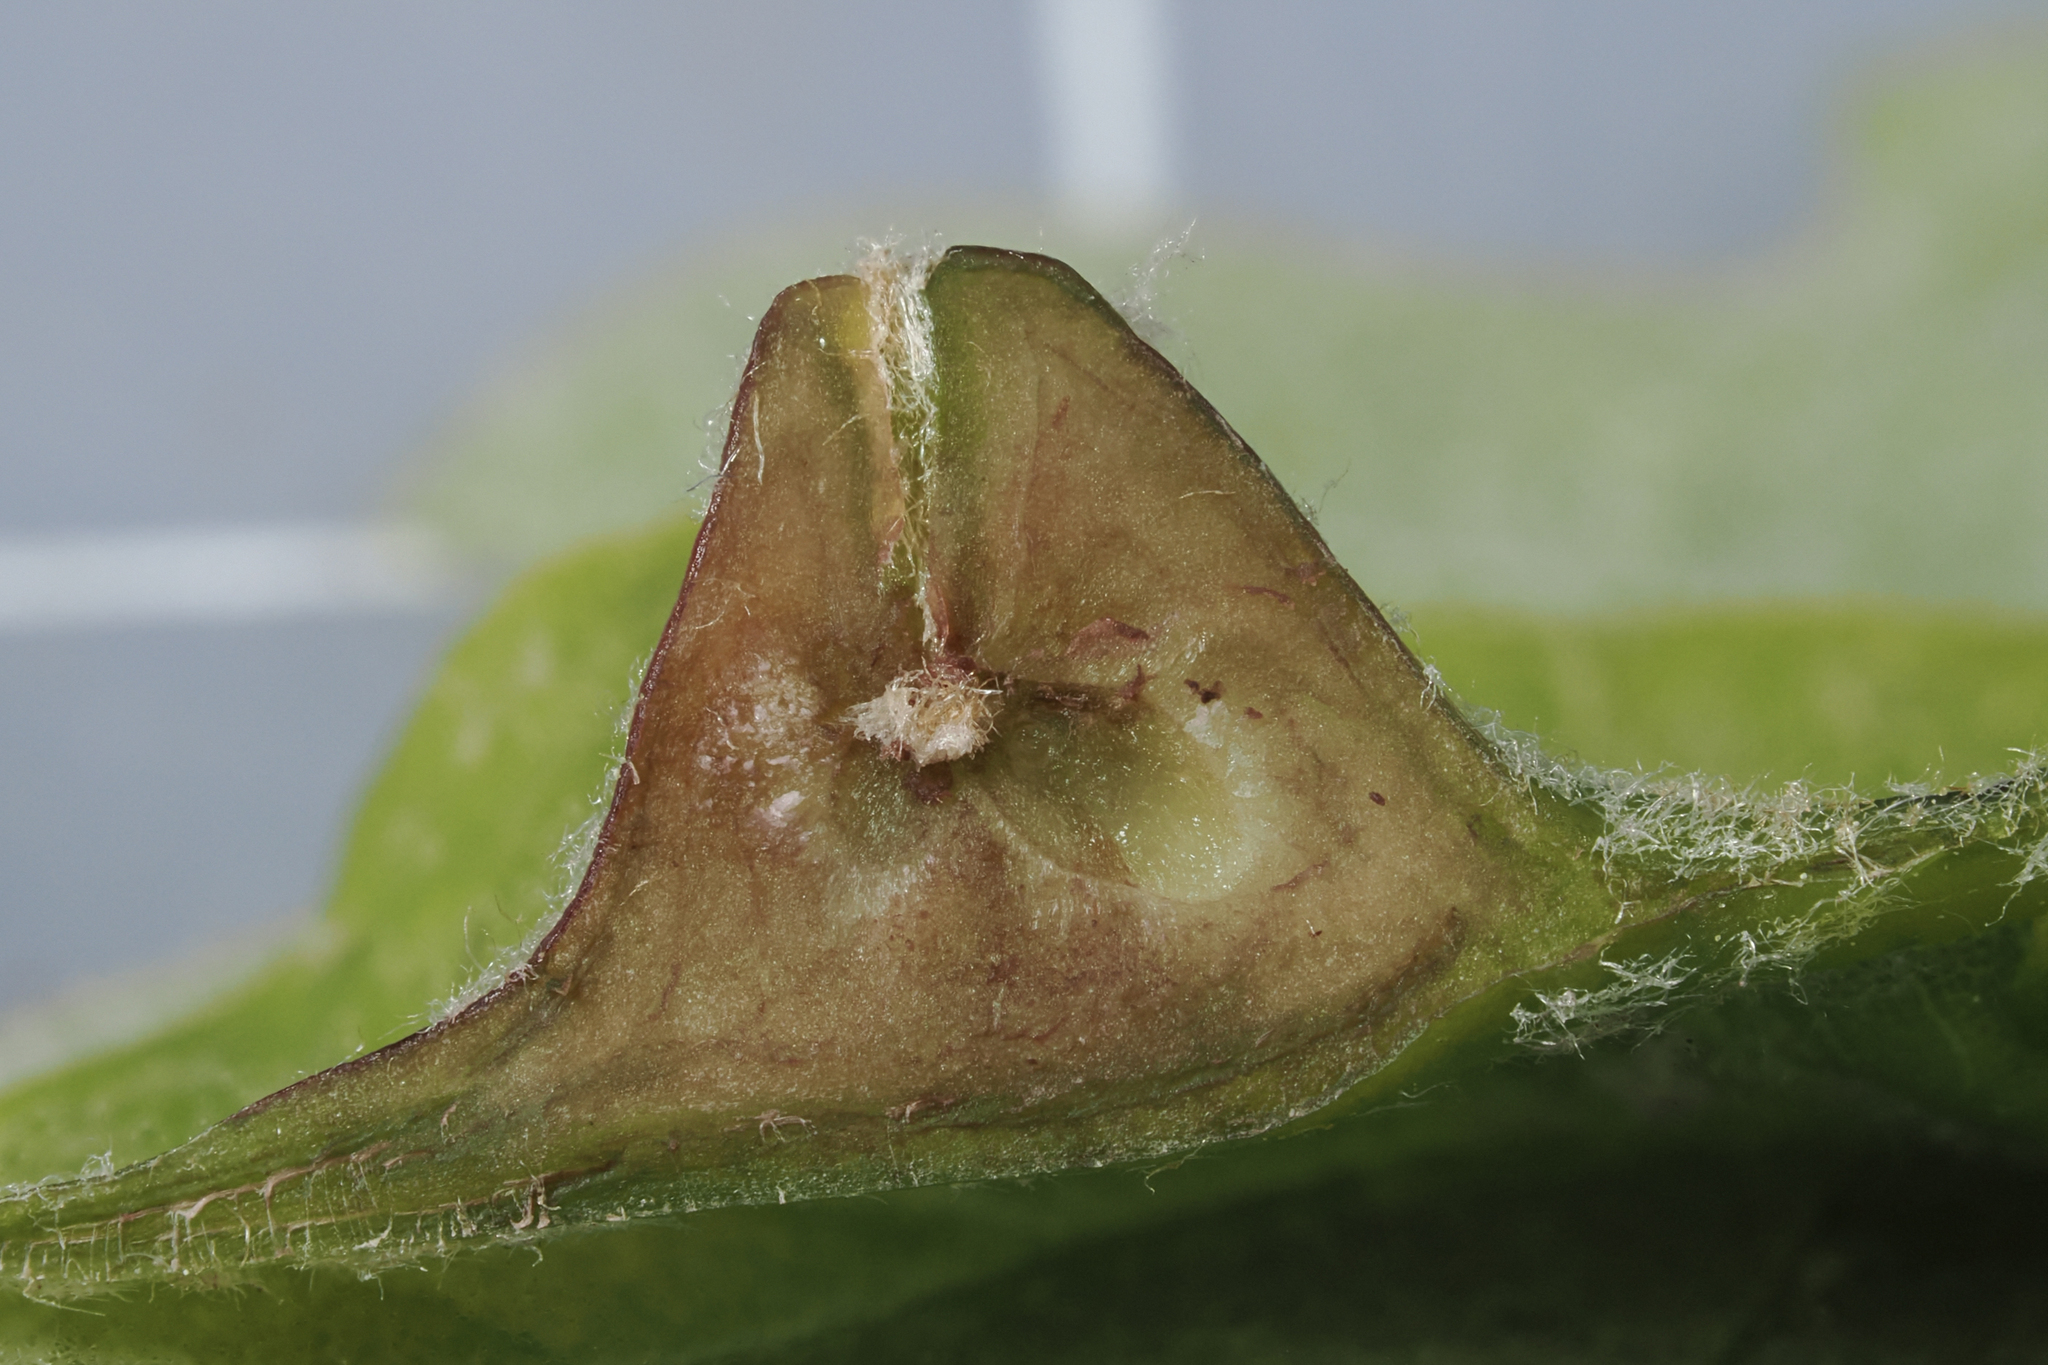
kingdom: Animalia
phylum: Arthropoda
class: Insecta
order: Hymenoptera
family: Cynipidae
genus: Andricus
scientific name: Andricus
